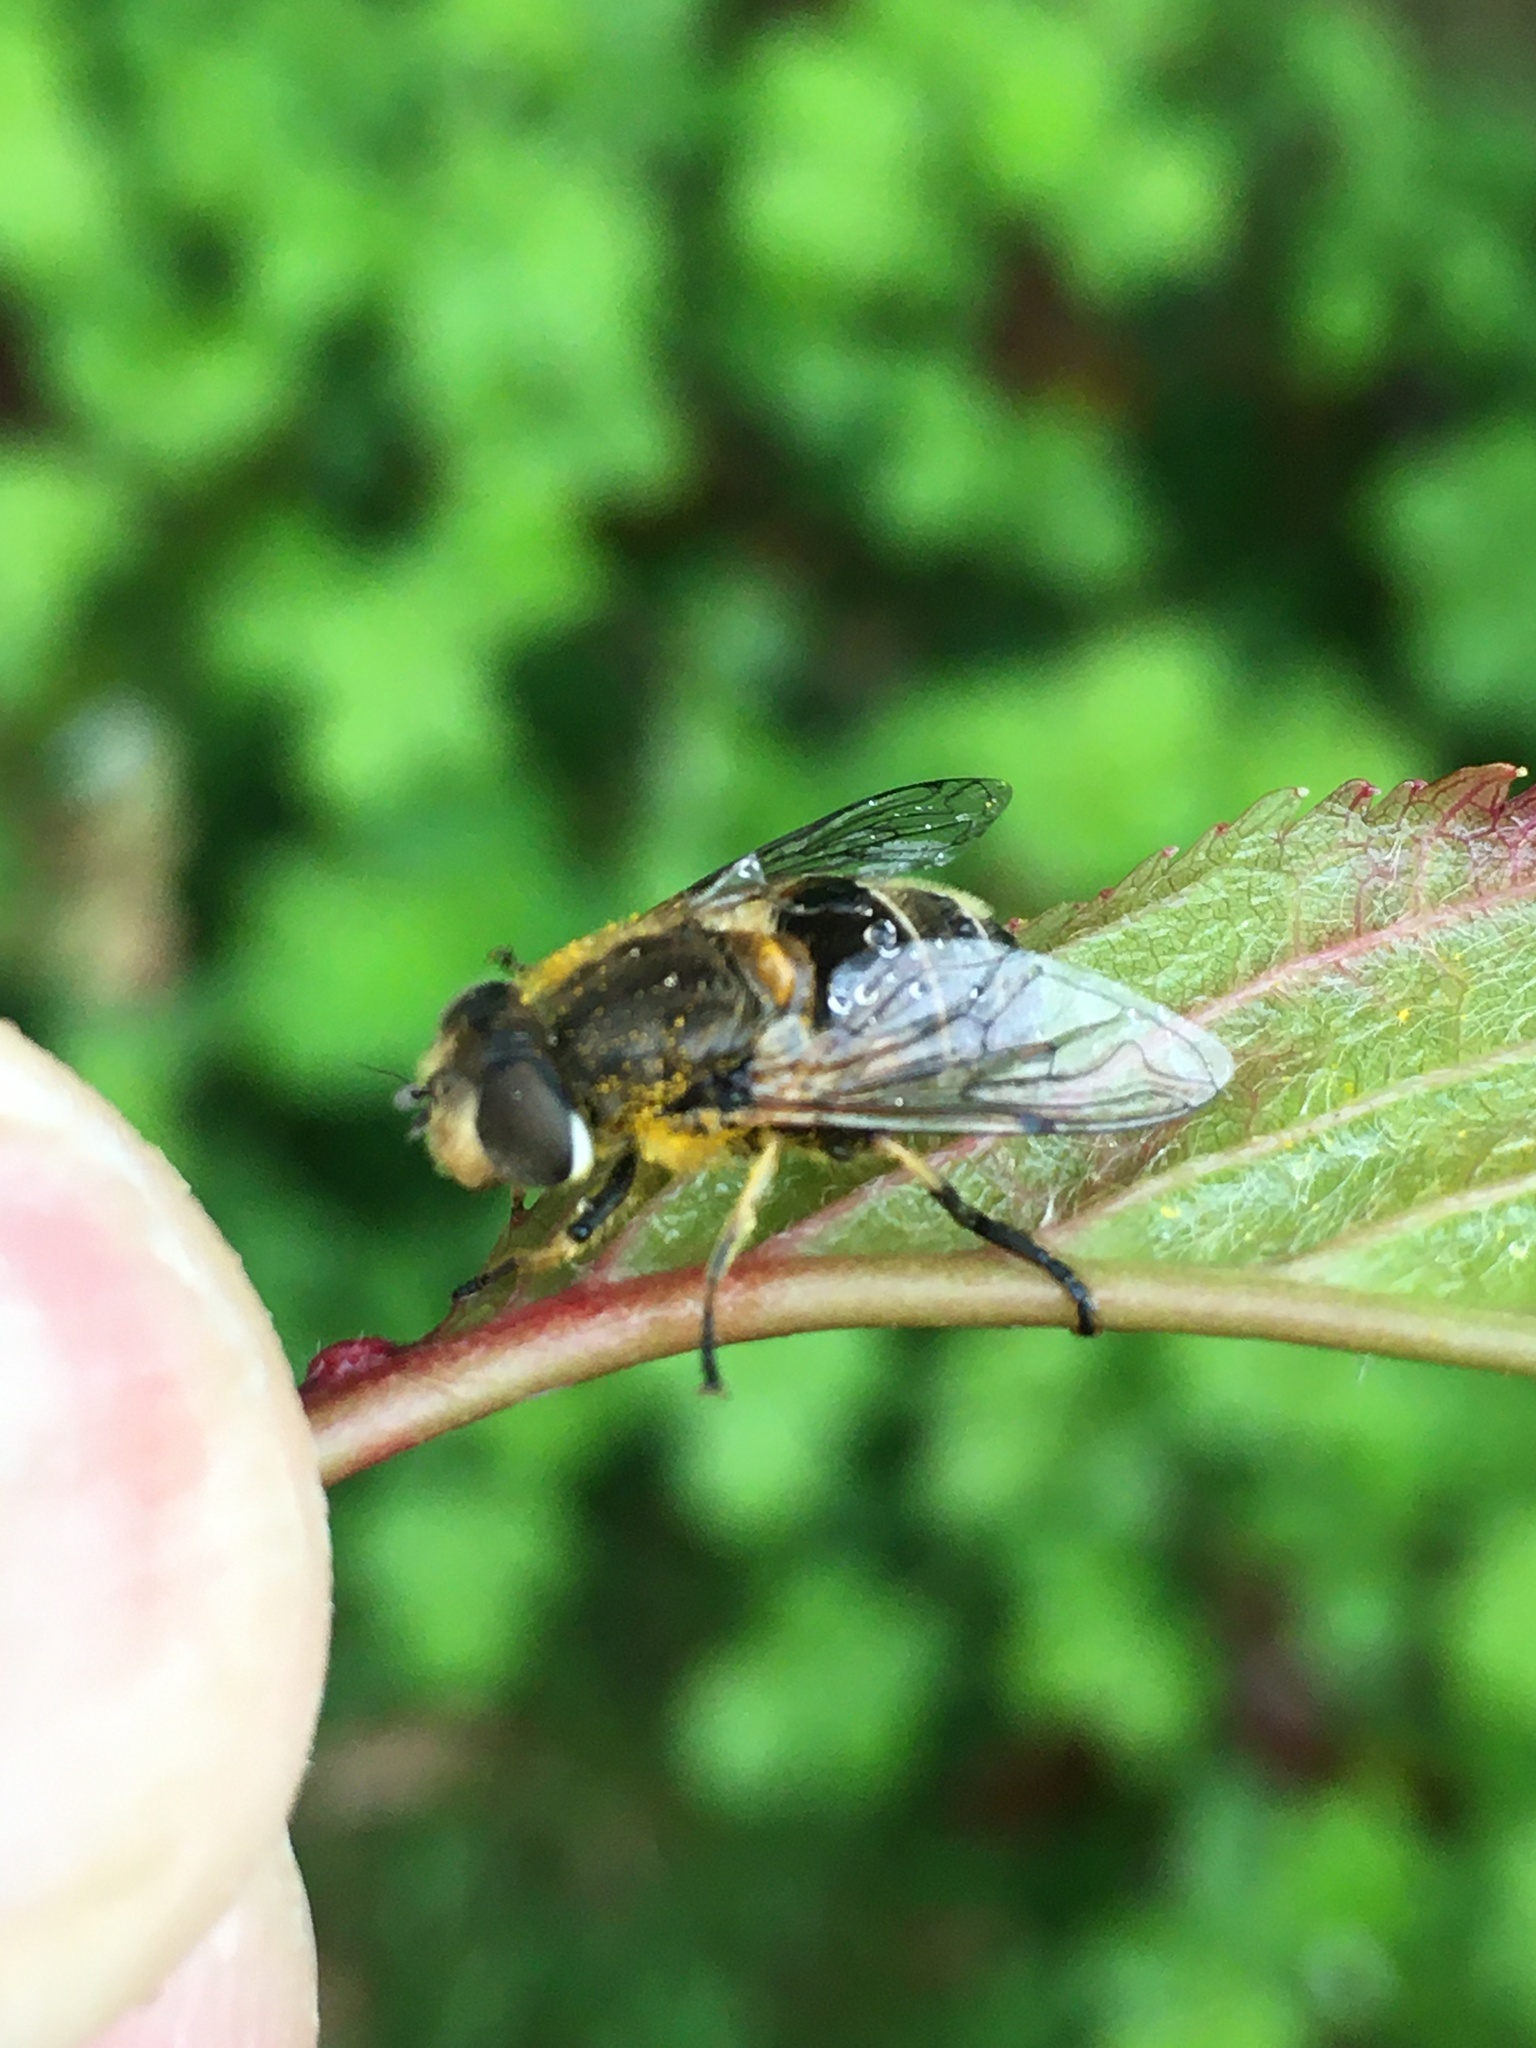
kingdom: Animalia
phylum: Arthropoda
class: Insecta
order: Diptera
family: Syrphidae
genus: Eristalis
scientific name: Eristalis arbustorum
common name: Hover fly
